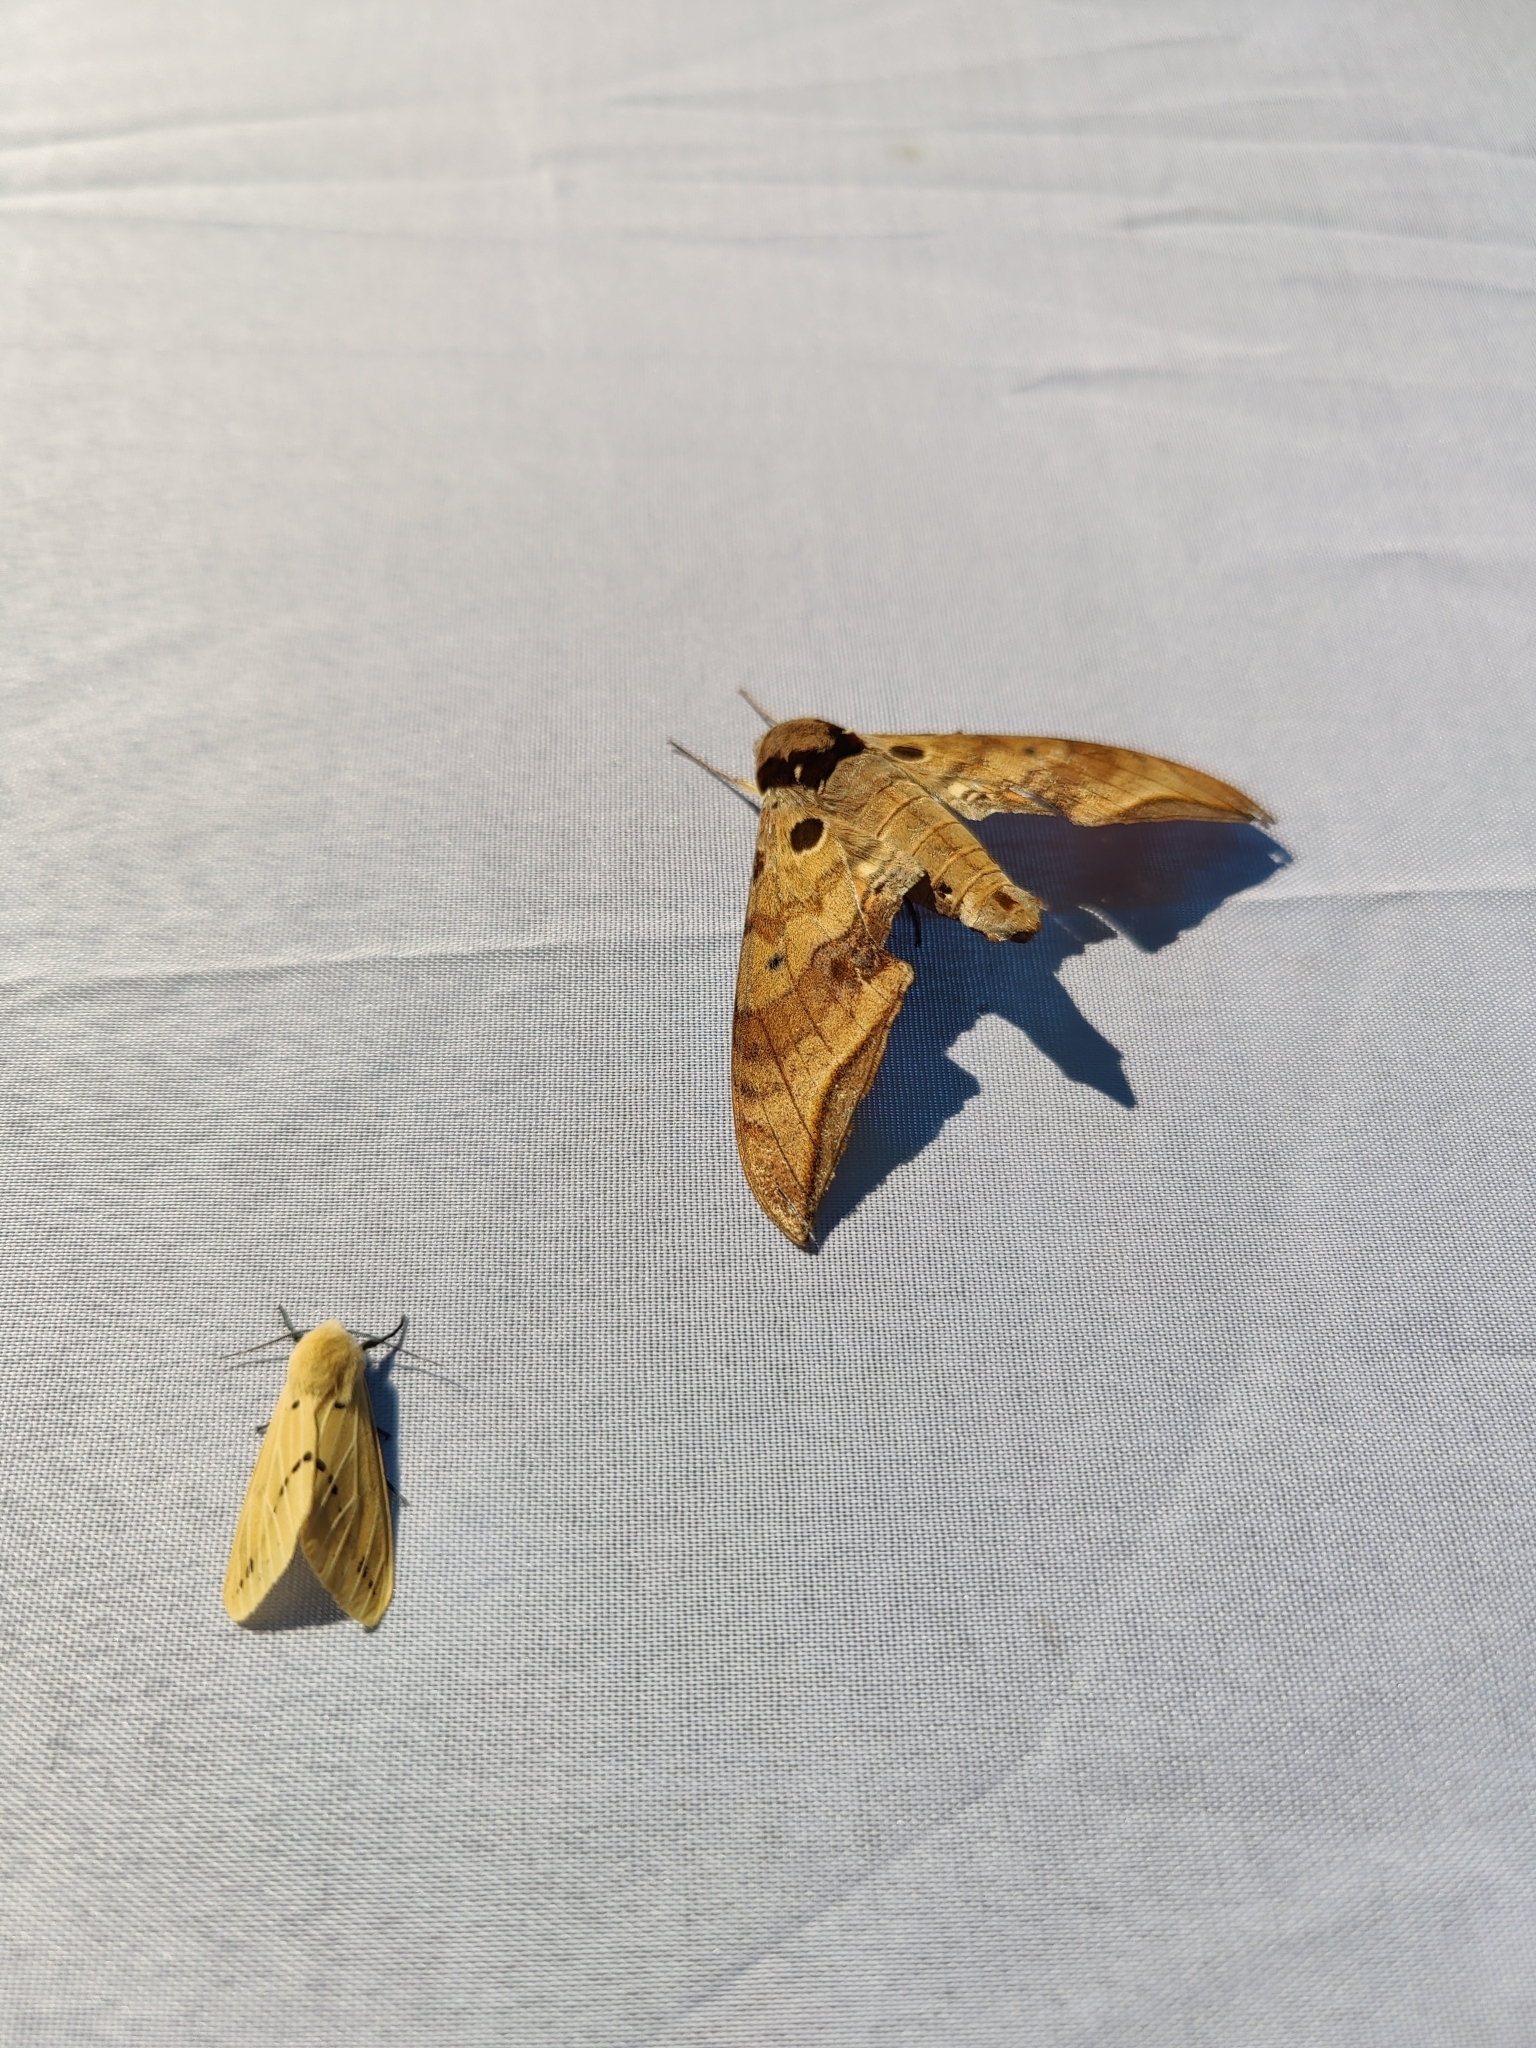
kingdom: Animalia
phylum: Arthropoda
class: Insecta
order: Lepidoptera
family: Sphingidae
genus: Ambulyx
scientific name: Ambulyx ochracea
